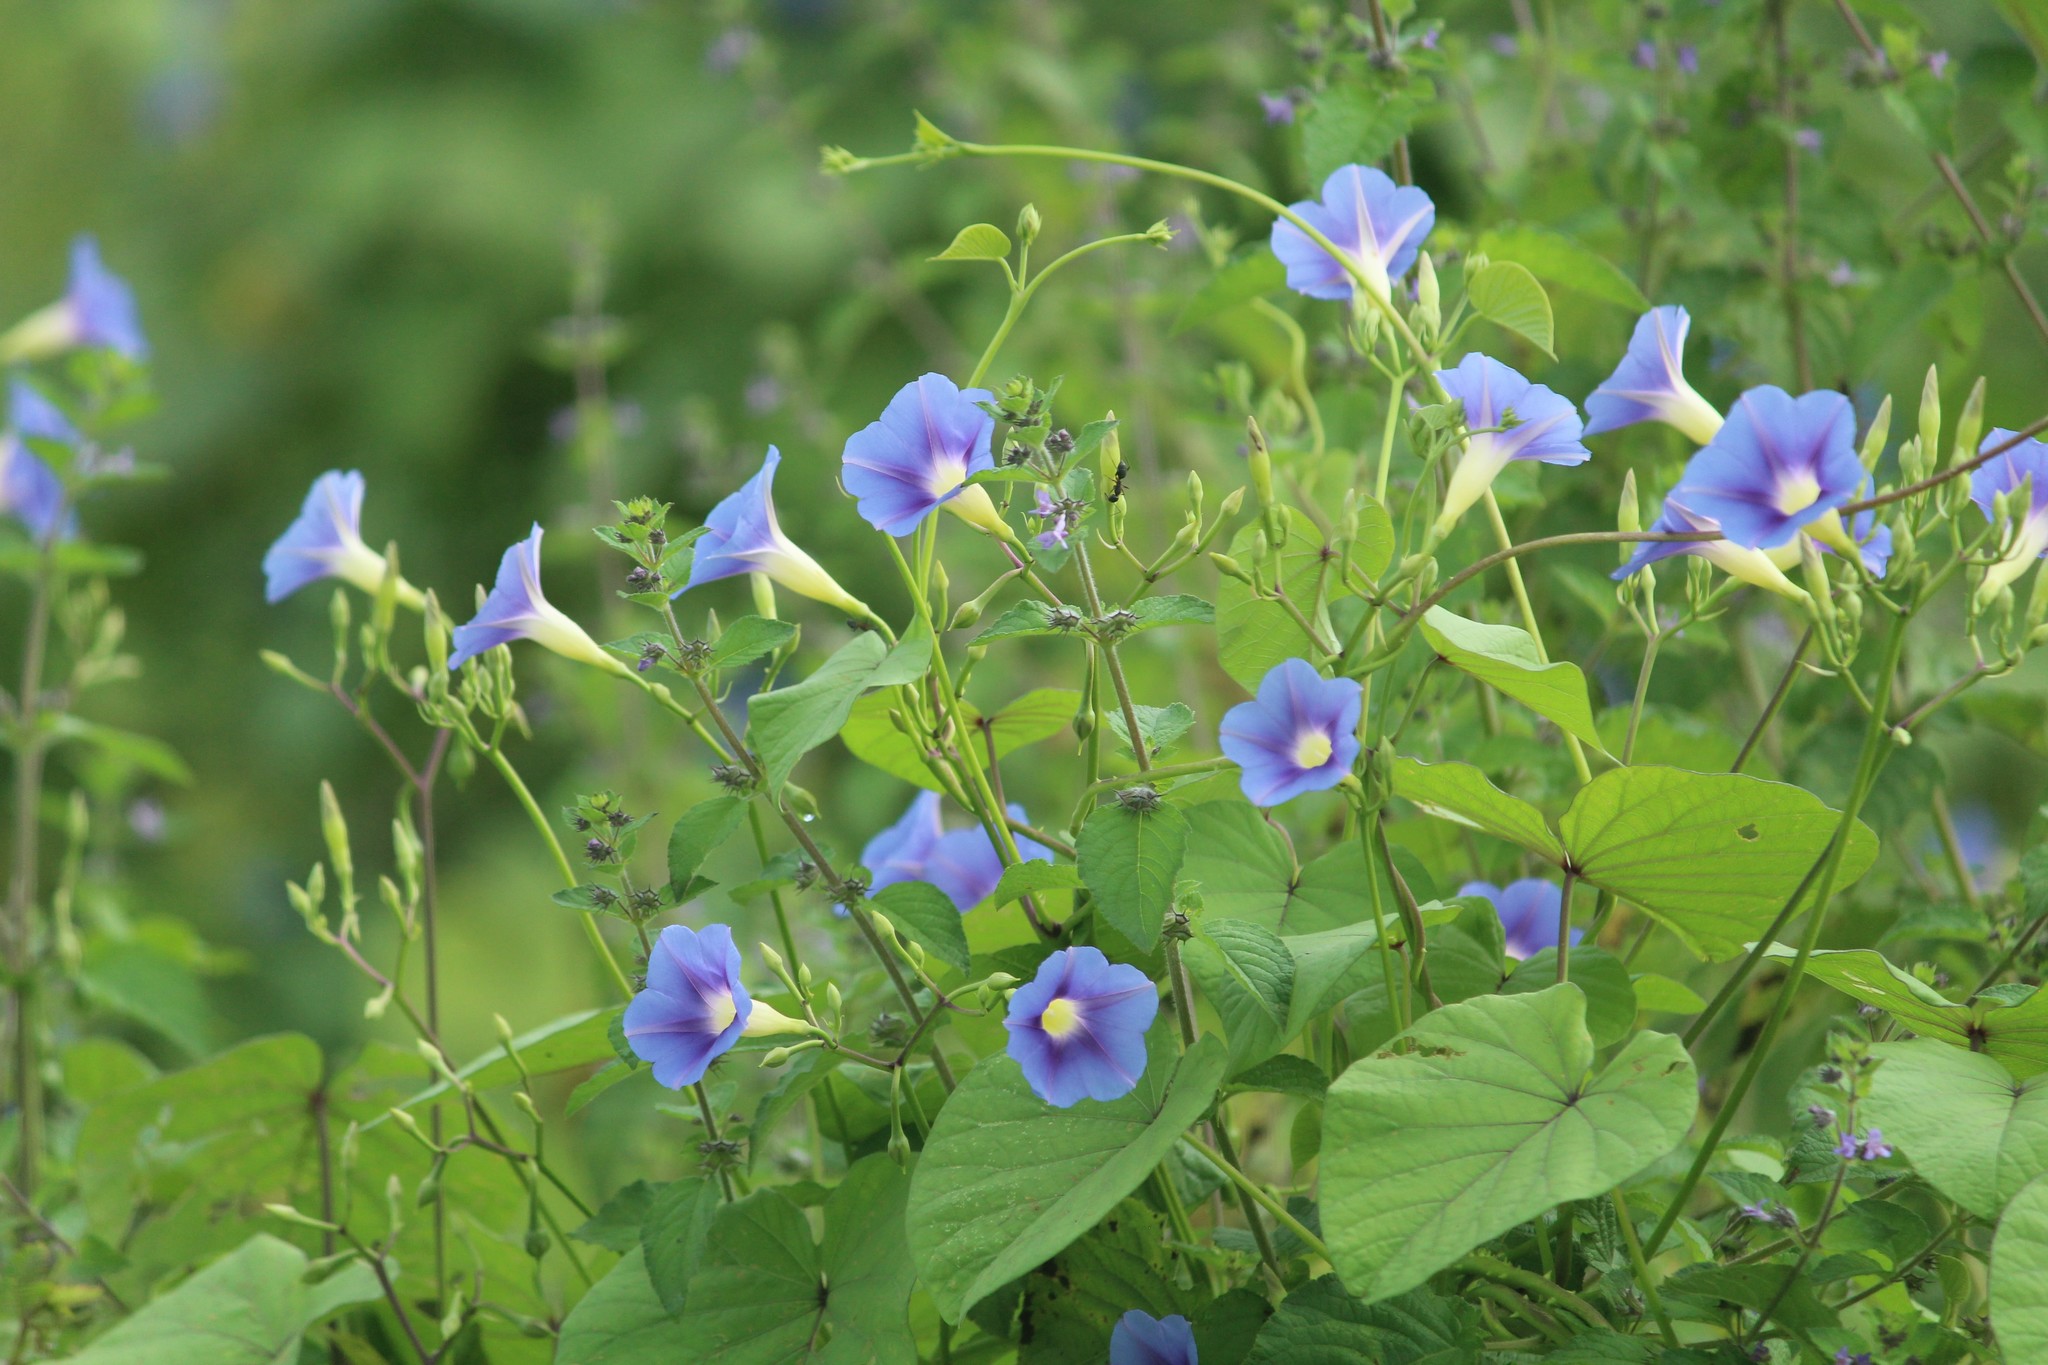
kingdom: Plantae
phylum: Tracheophyta
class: Magnoliopsida
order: Solanales
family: Convolvulaceae
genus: Ipomoea
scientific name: Ipomoea parasitica
